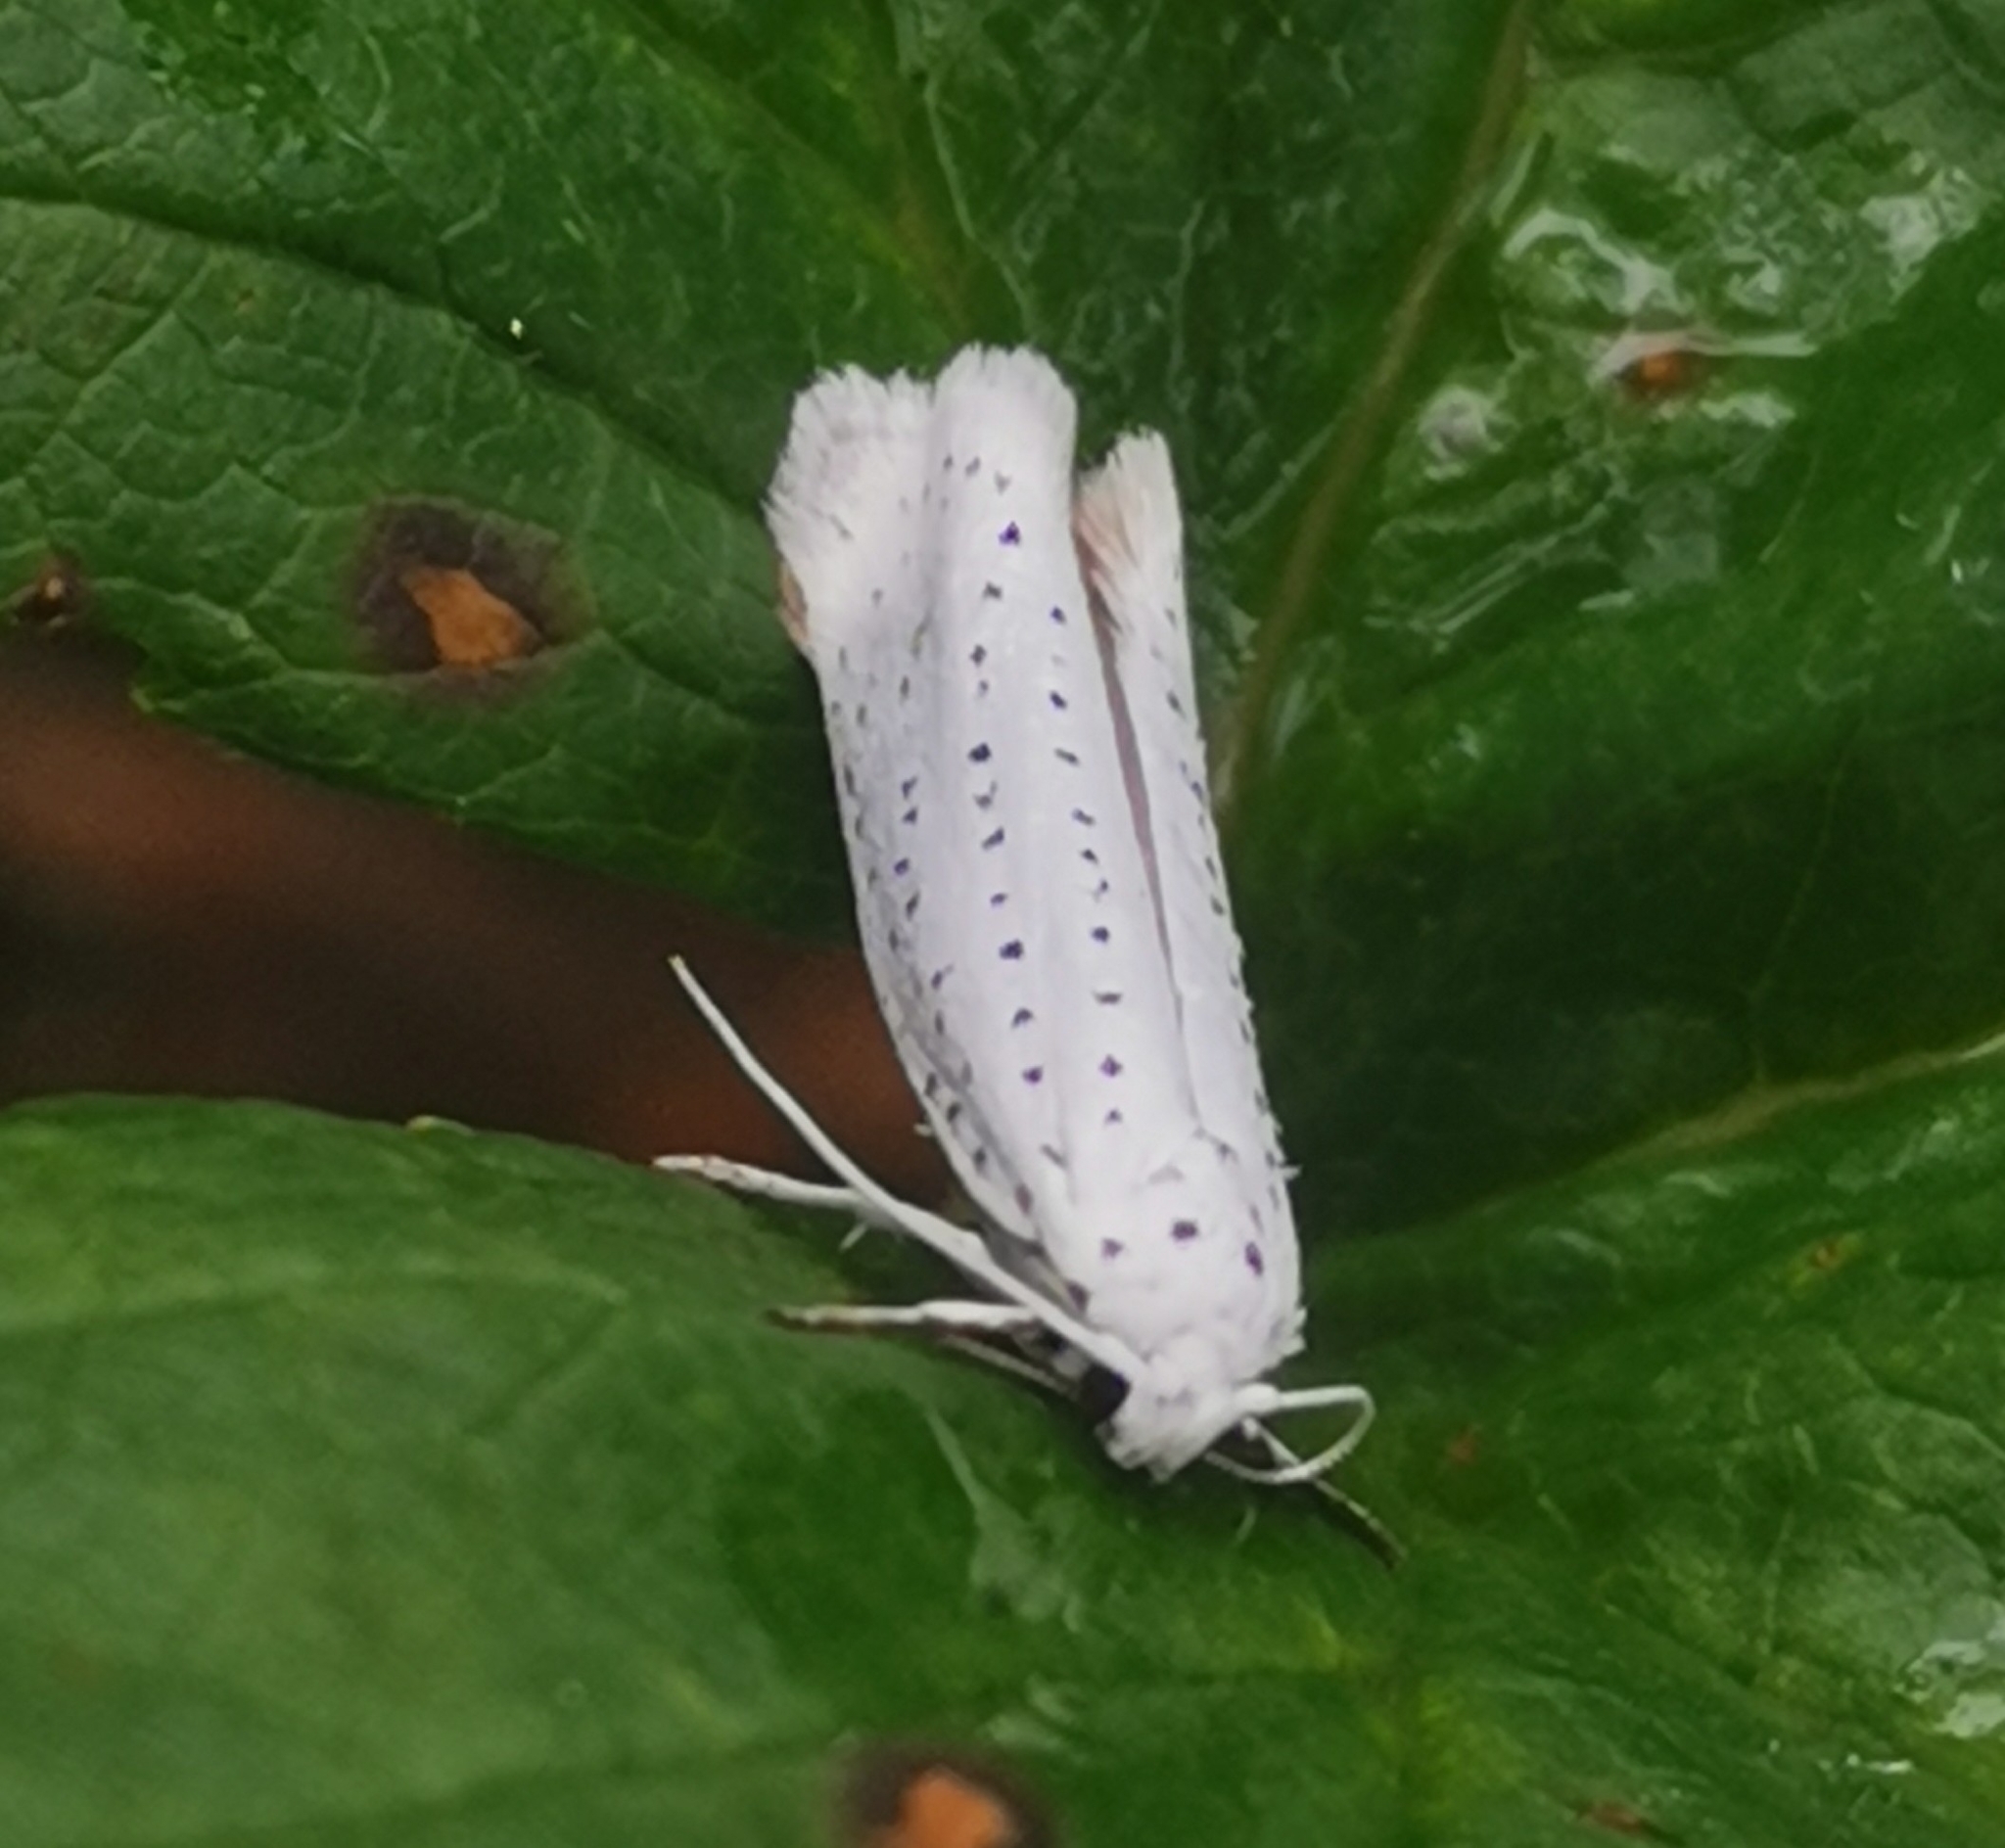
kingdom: Animalia
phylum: Arthropoda
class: Insecta
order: Lepidoptera
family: Yponomeutidae
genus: Yponomeuta
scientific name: Yponomeuta evonymella
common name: Bird-cherry ermine
